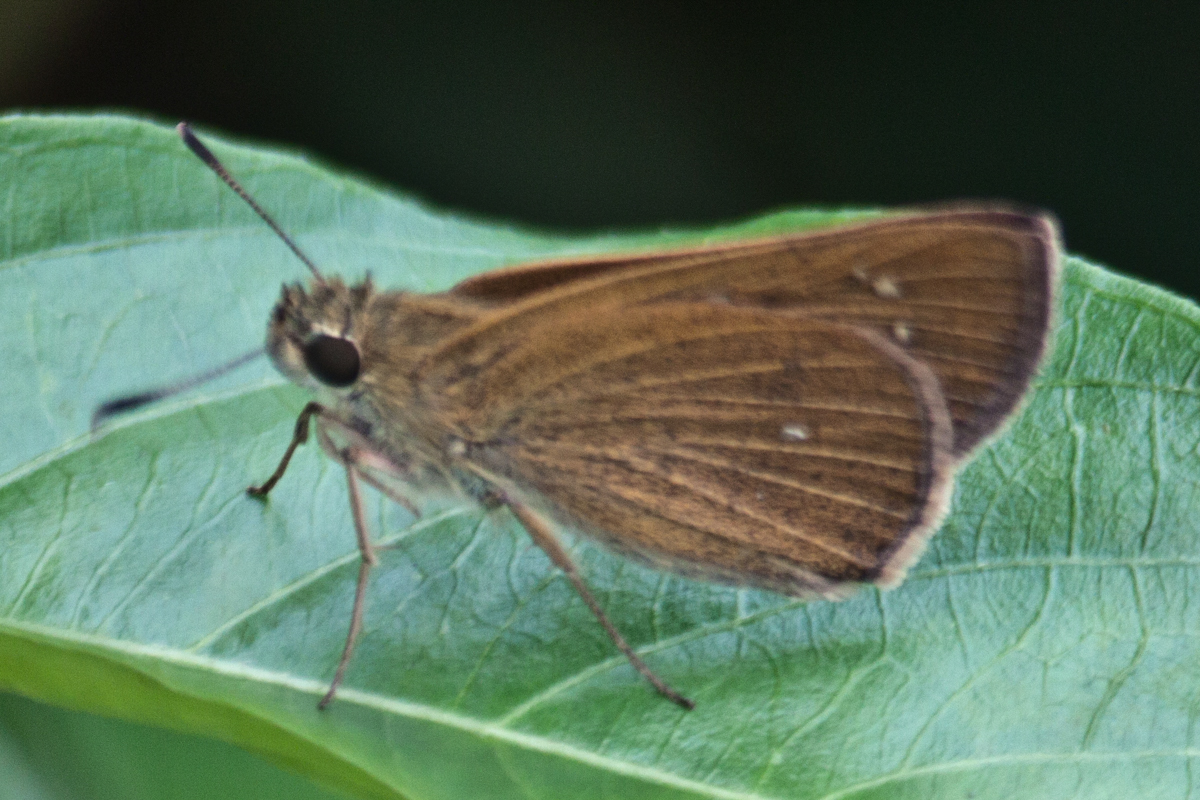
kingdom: Animalia
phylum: Arthropoda
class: Insecta
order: Lepidoptera
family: Hesperiidae
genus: Polytremis
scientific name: Polytremis lubricans
